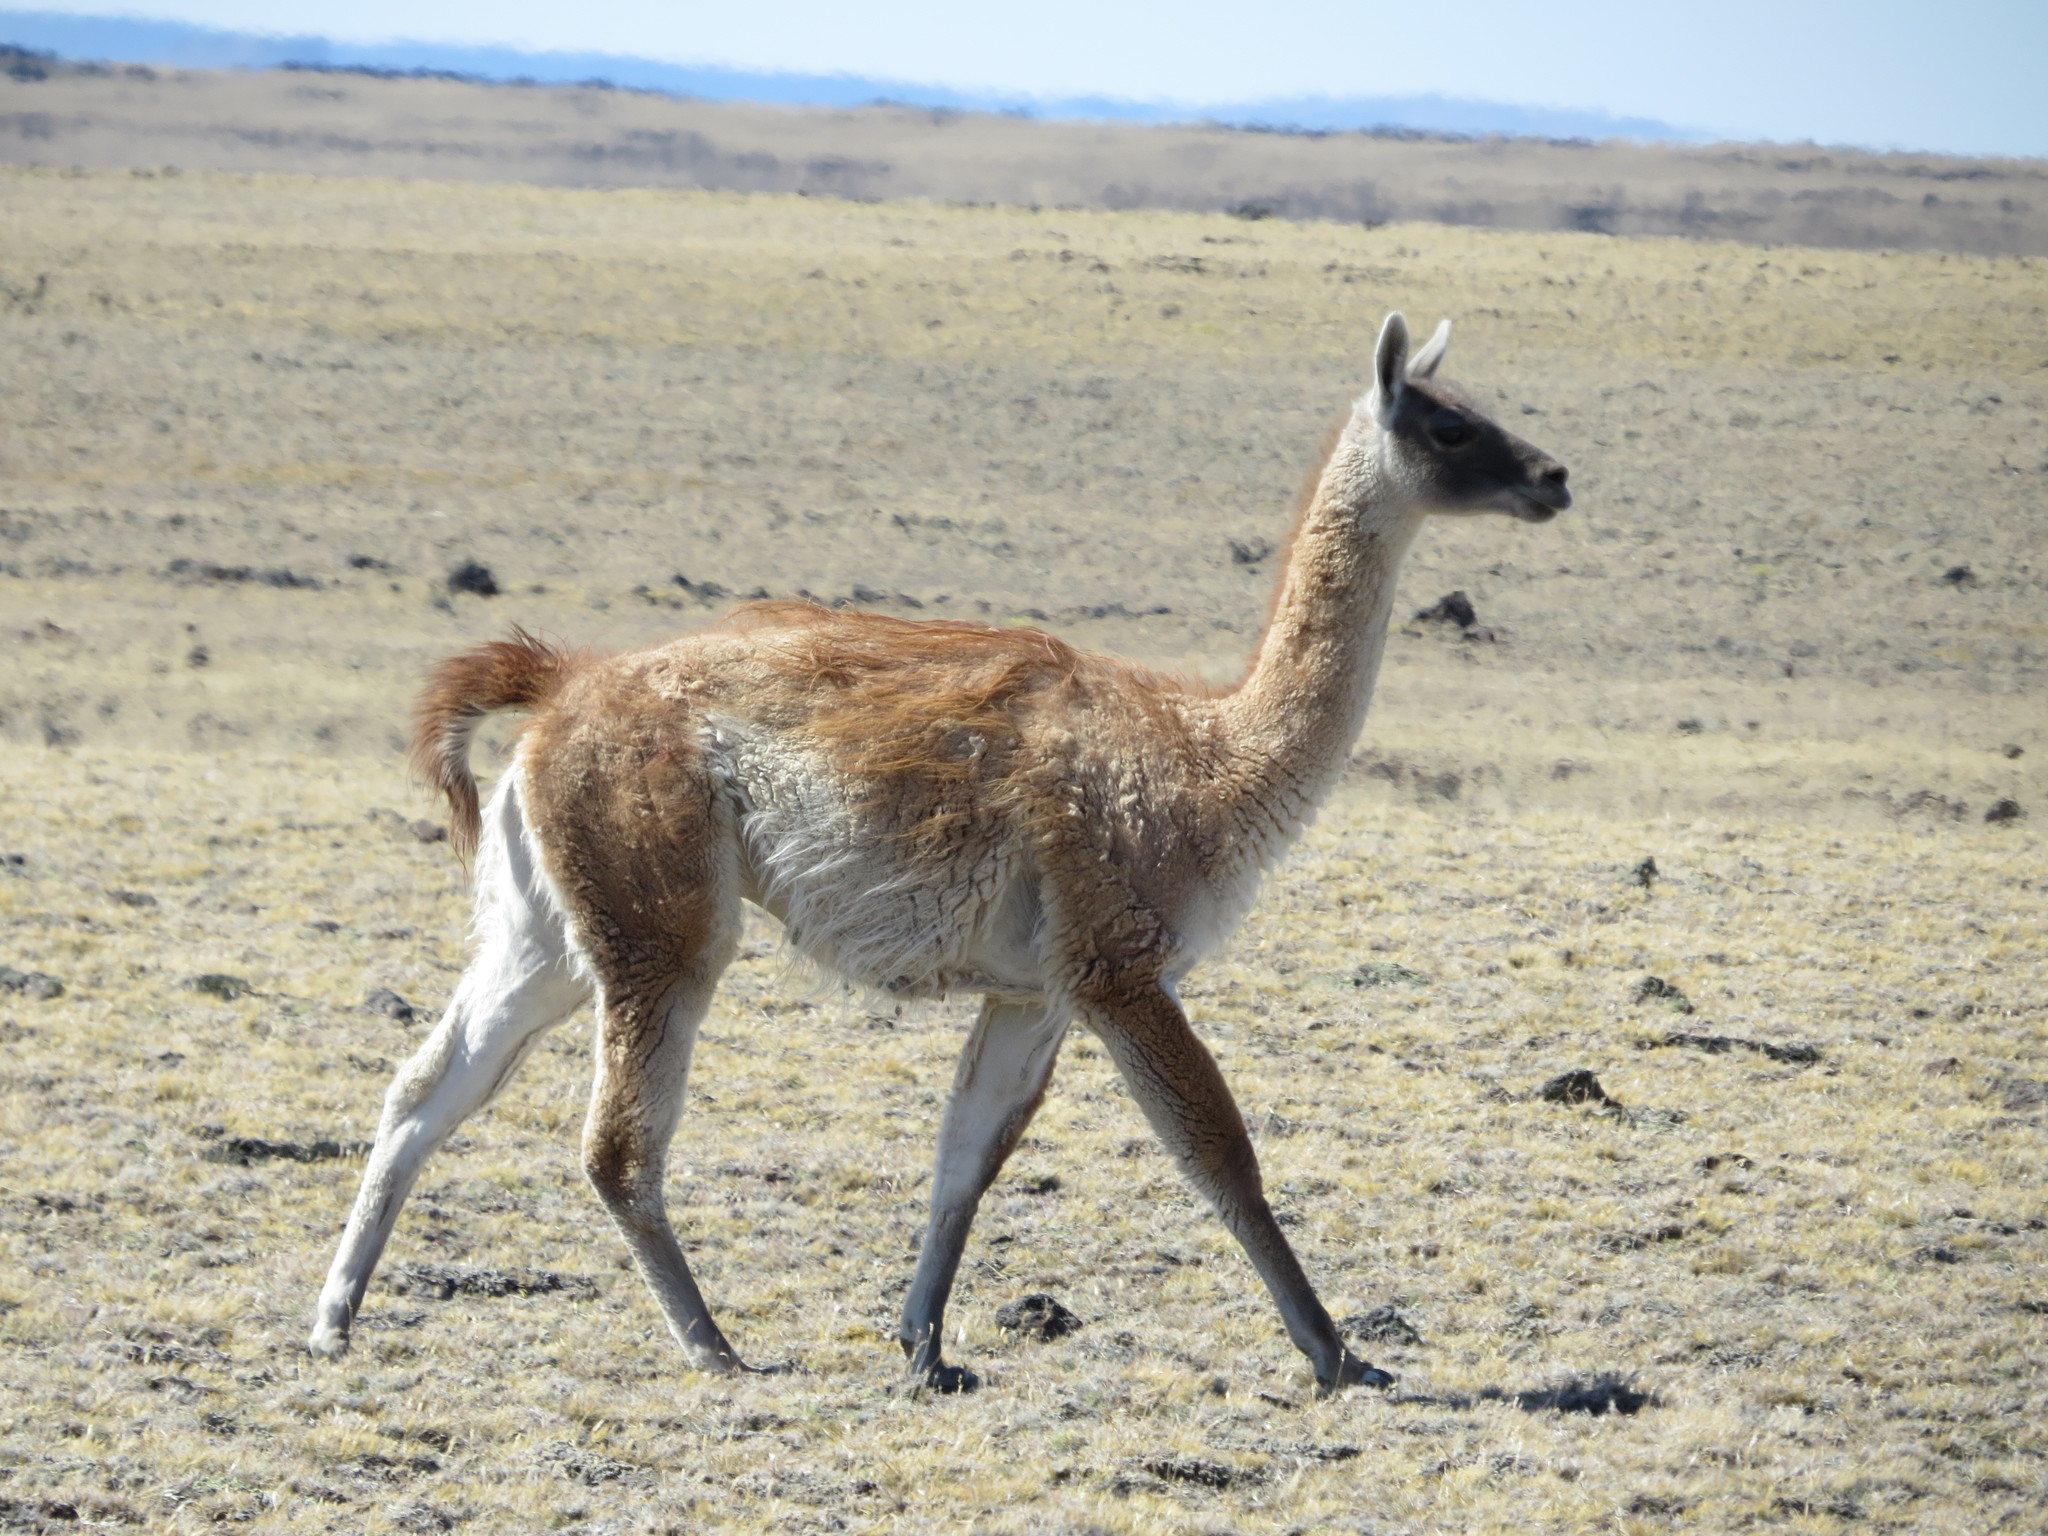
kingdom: Animalia
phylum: Chordata
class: Mammalia
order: Artiodactyla
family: Camelidae
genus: Lama
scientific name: Lama glama
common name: Llama
